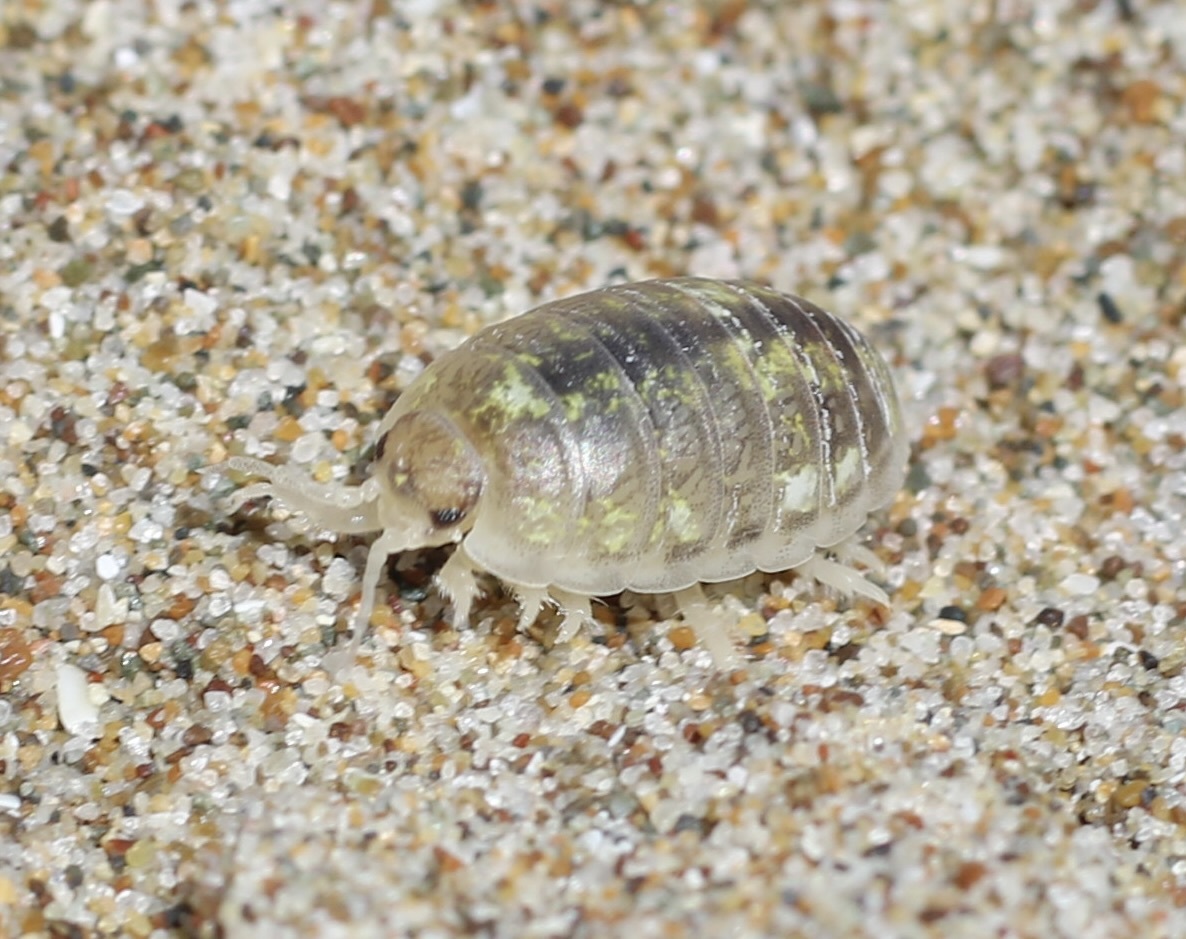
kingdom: Animalia
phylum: Arthropoda
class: Malacostraca
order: Isopoda
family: Alloniscidae
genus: Alloniscus
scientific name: Alloniscus perconvexus
